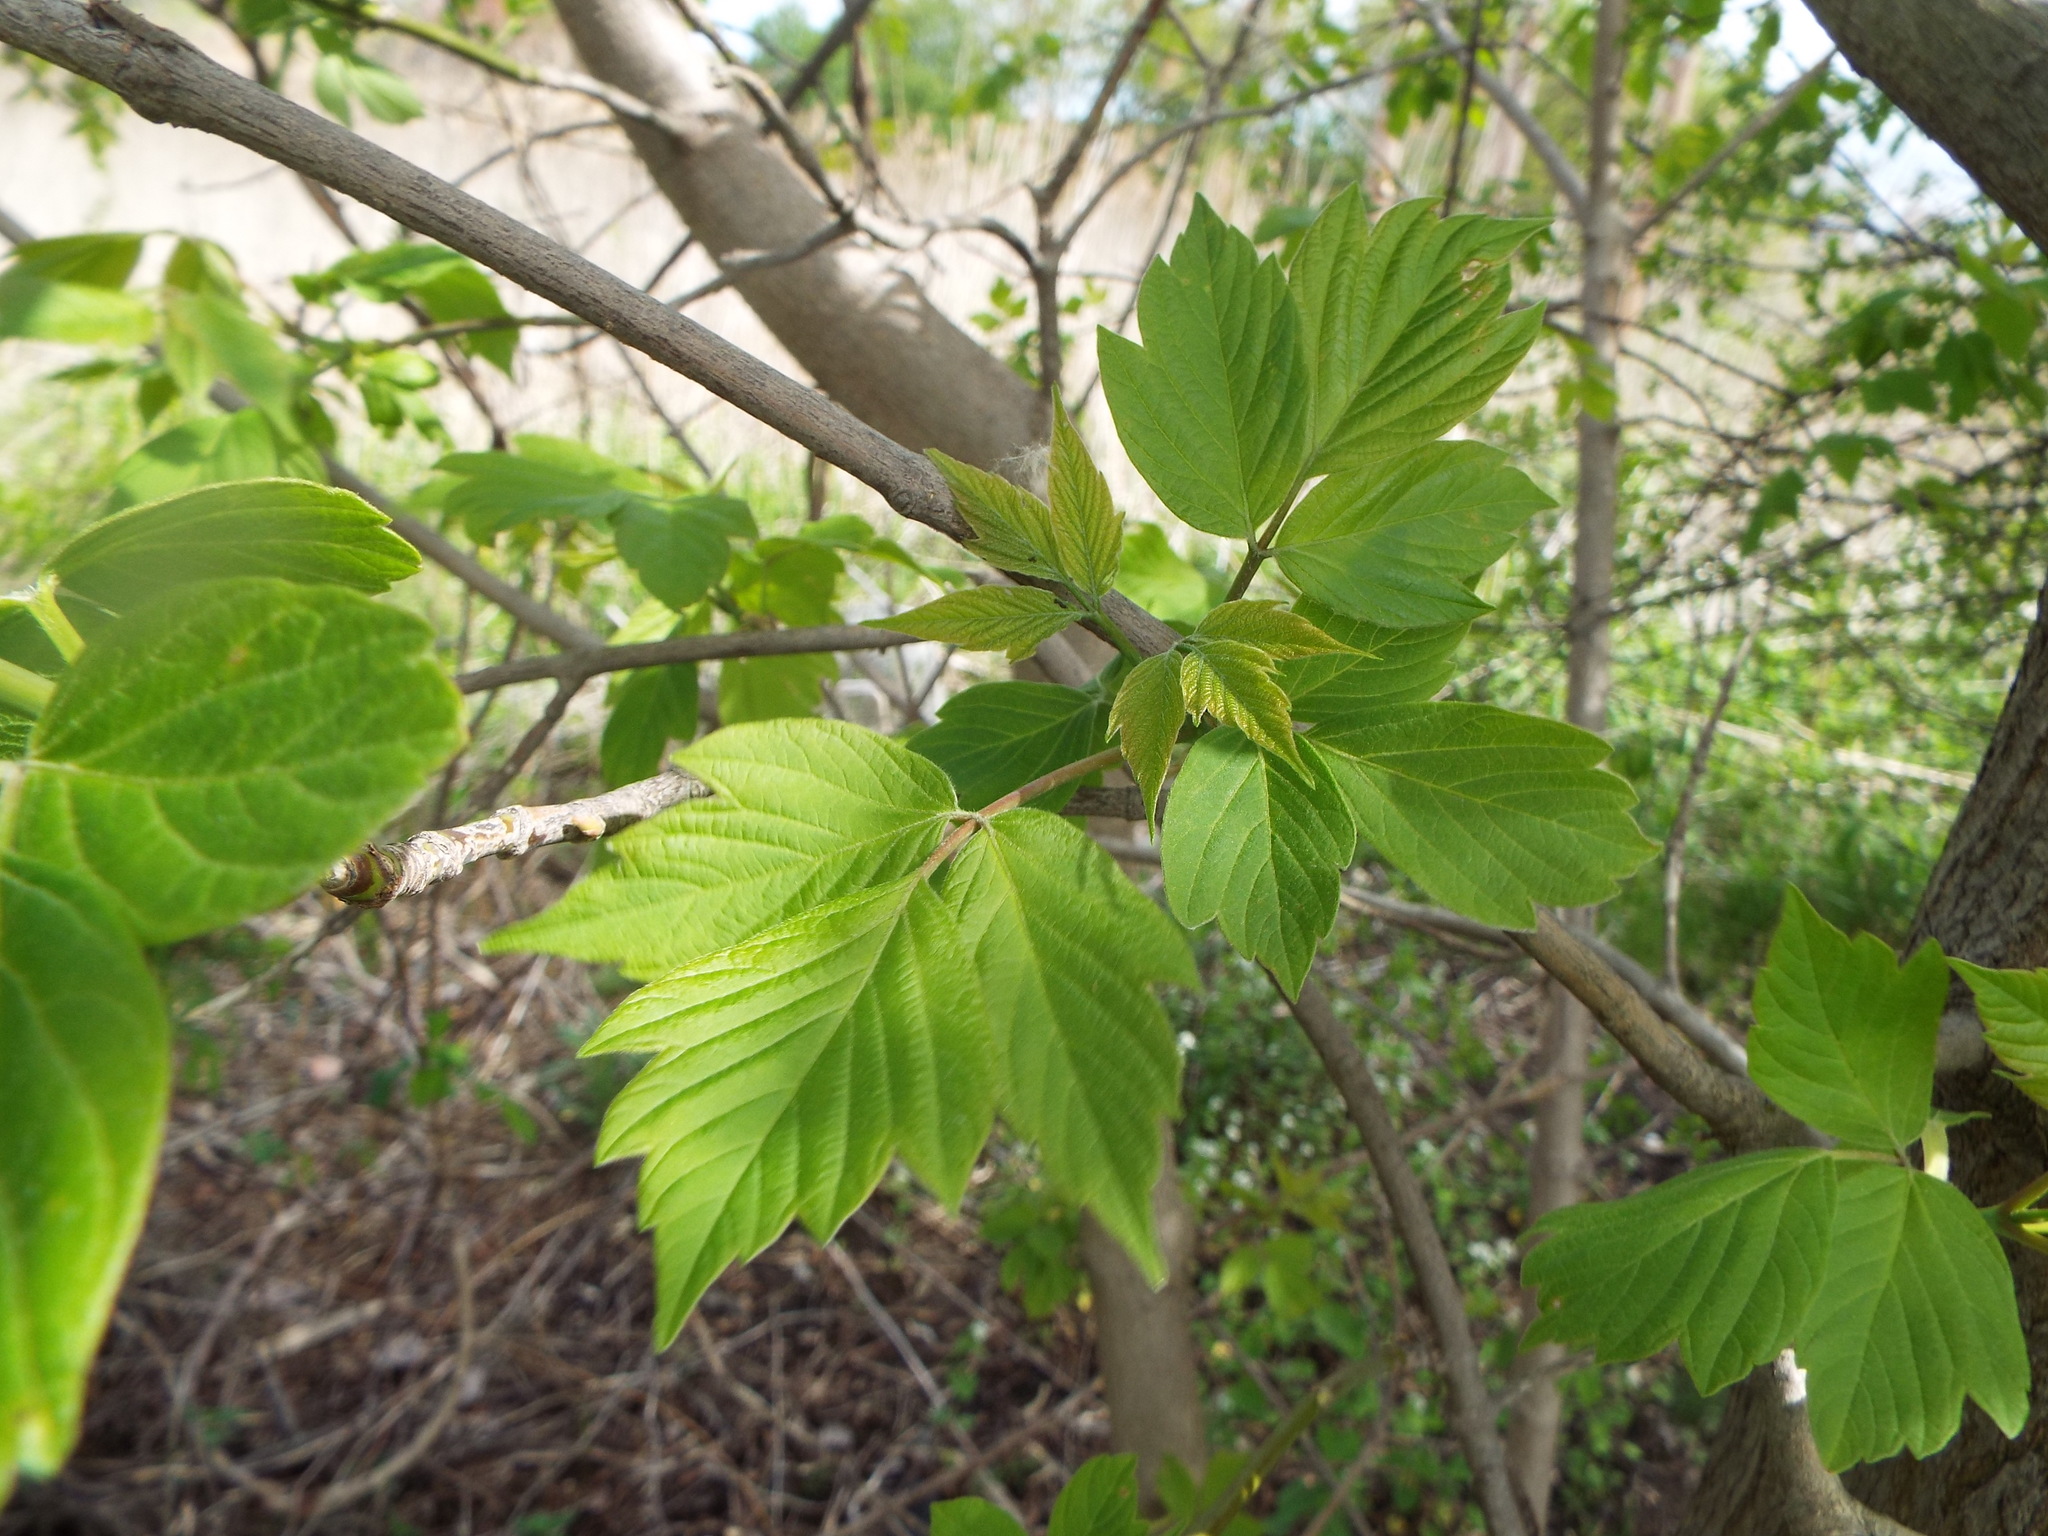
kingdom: Plantae
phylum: Tracheophyta
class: Magnoliopsida
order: Sapindales
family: Sapindaceae
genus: Acer
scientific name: Acer negundo
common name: Ashleaf maple
